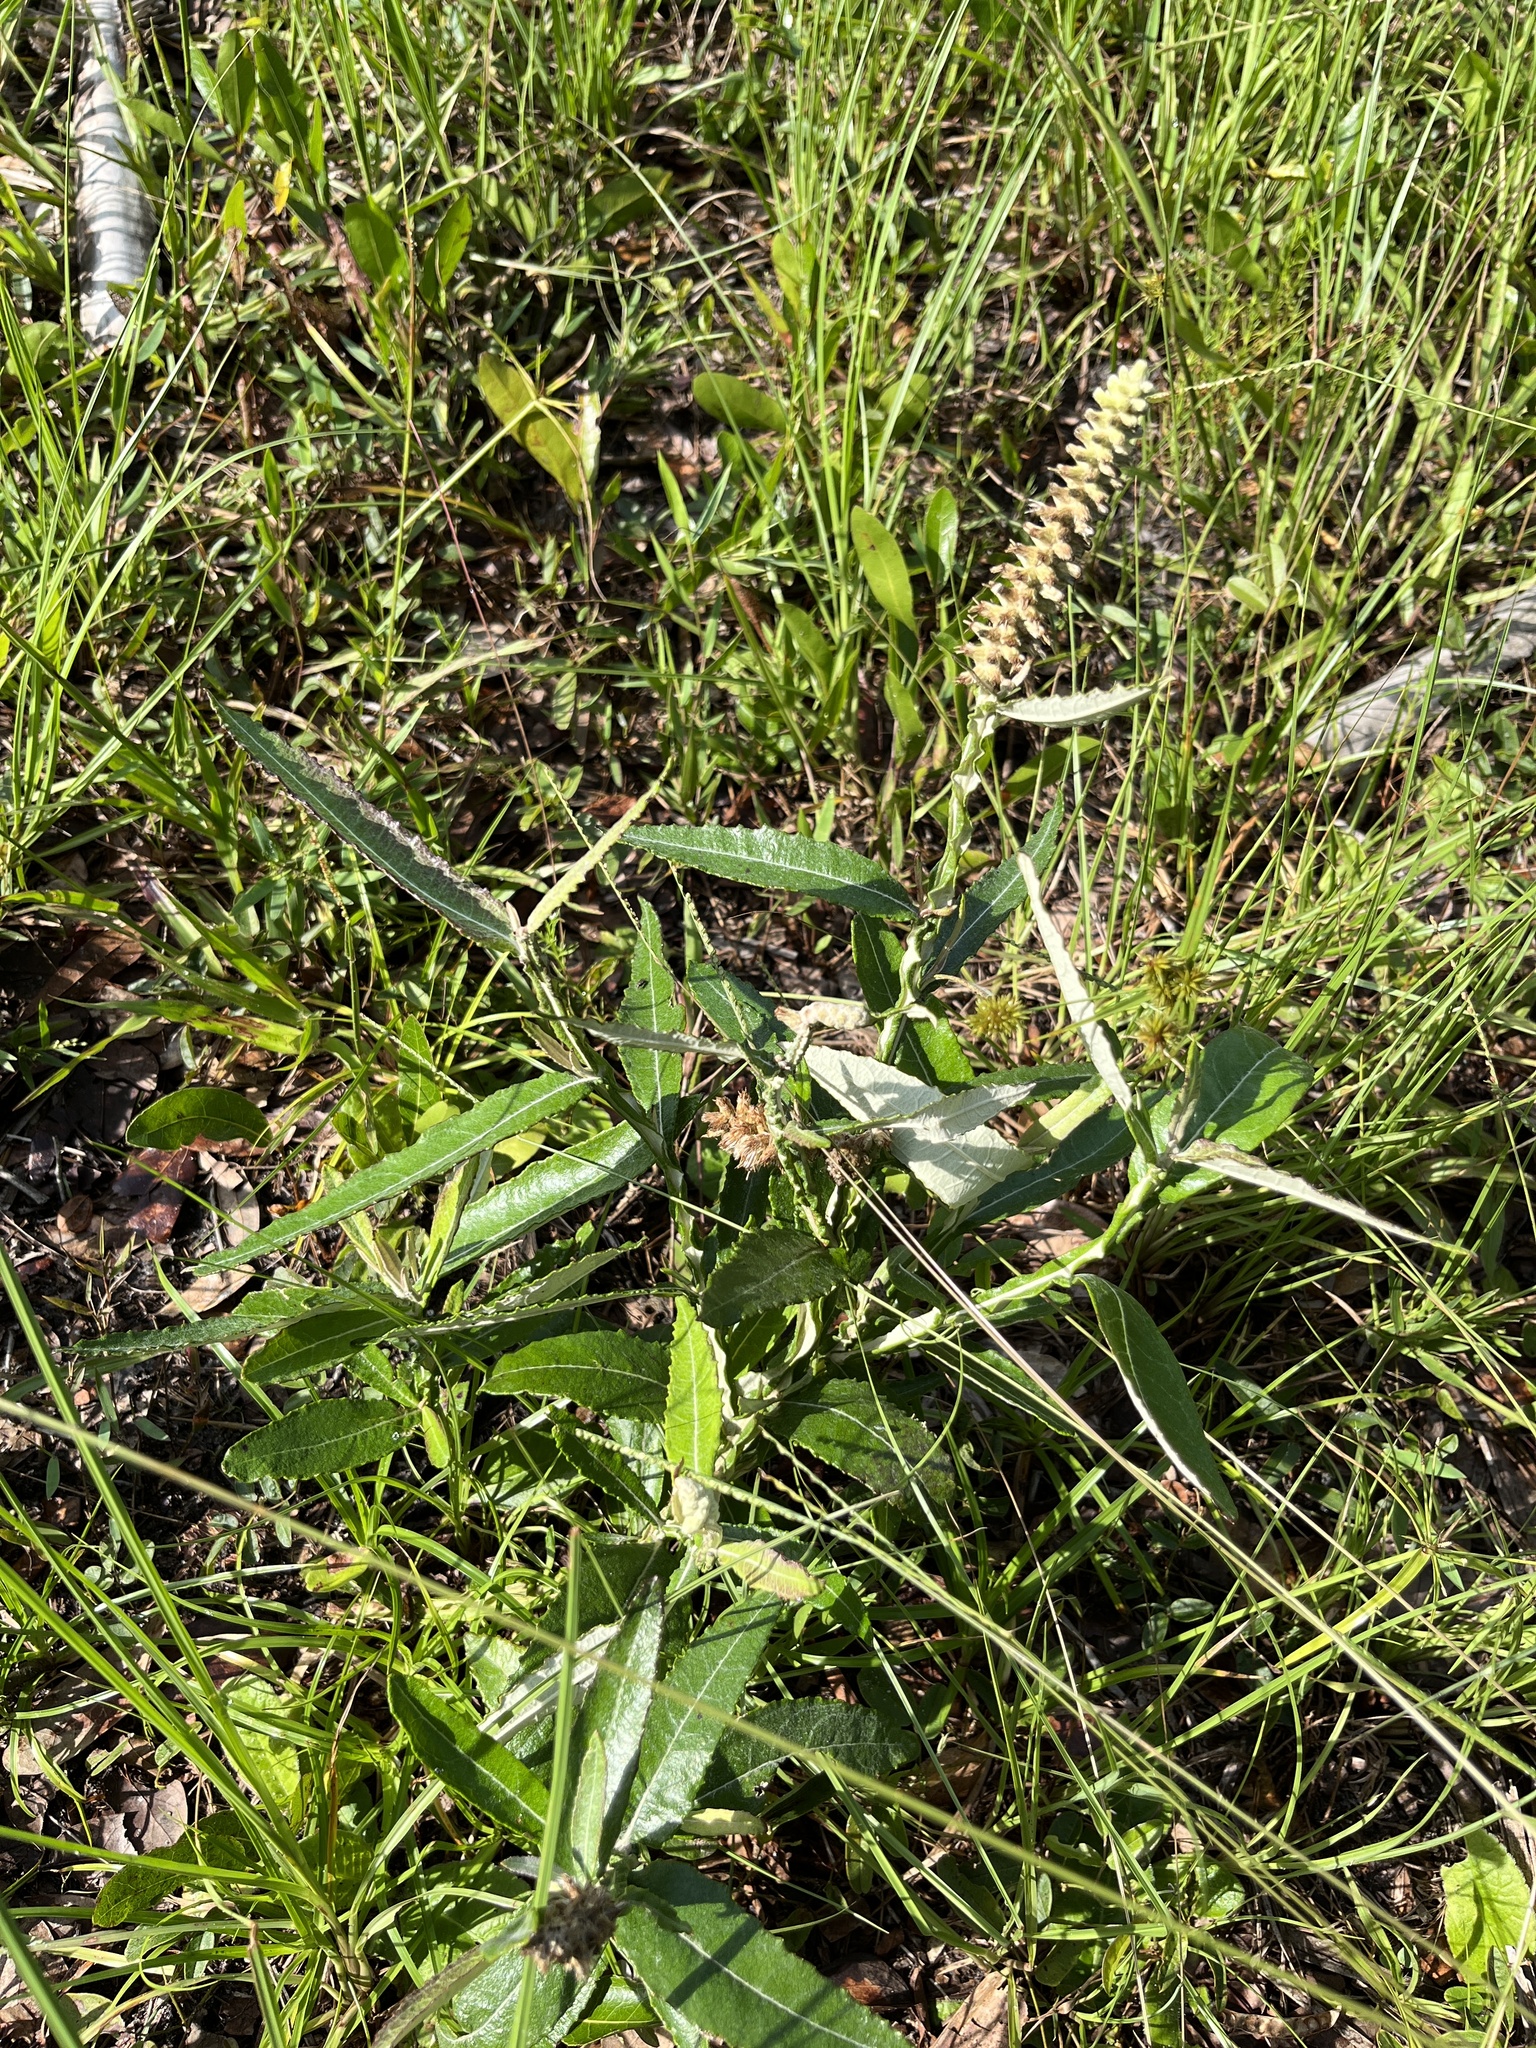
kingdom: Plantae
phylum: Tracheophyta
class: Magnoliopsida
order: Asterales
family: Asteraceae
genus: Pterocaulon
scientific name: Pterocaulon pycnostachyum
